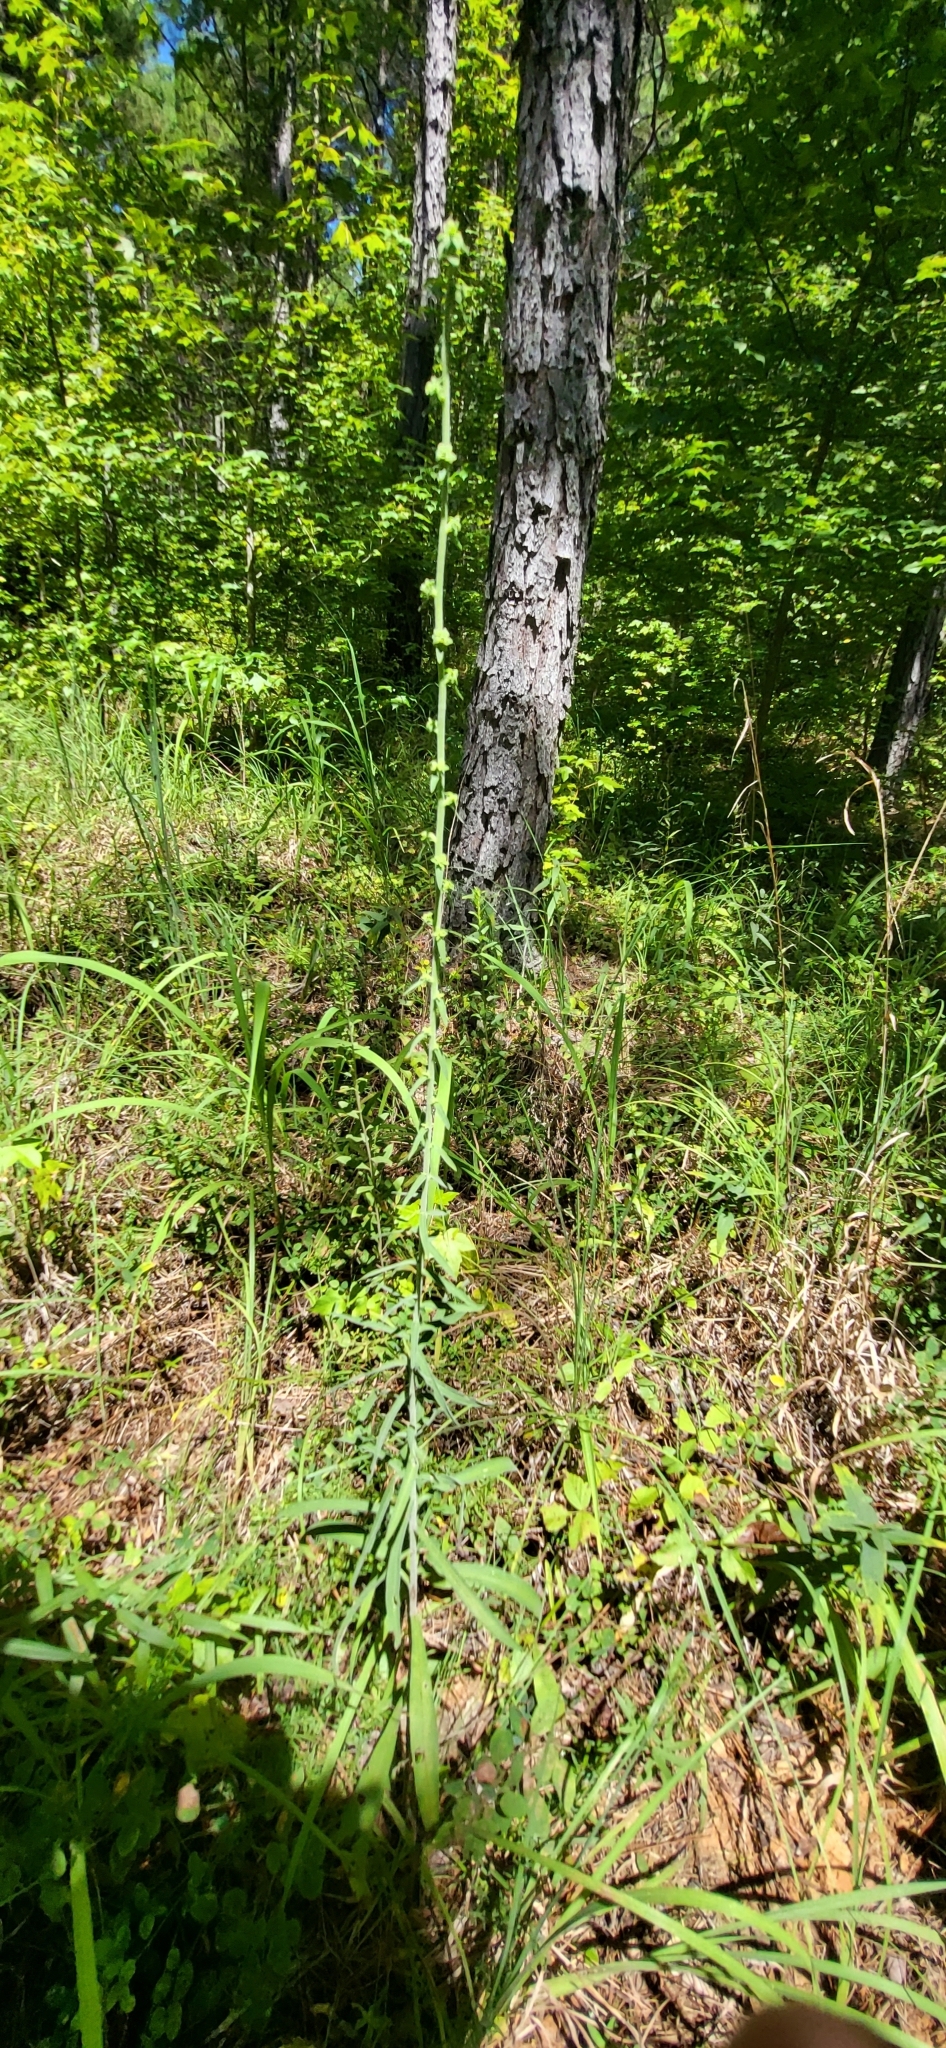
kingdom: Plantae
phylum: Tracheophyta
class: Magnoliopsida
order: Asterales
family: Asteraceae
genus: Liatris
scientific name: Liatris squarrulosa
